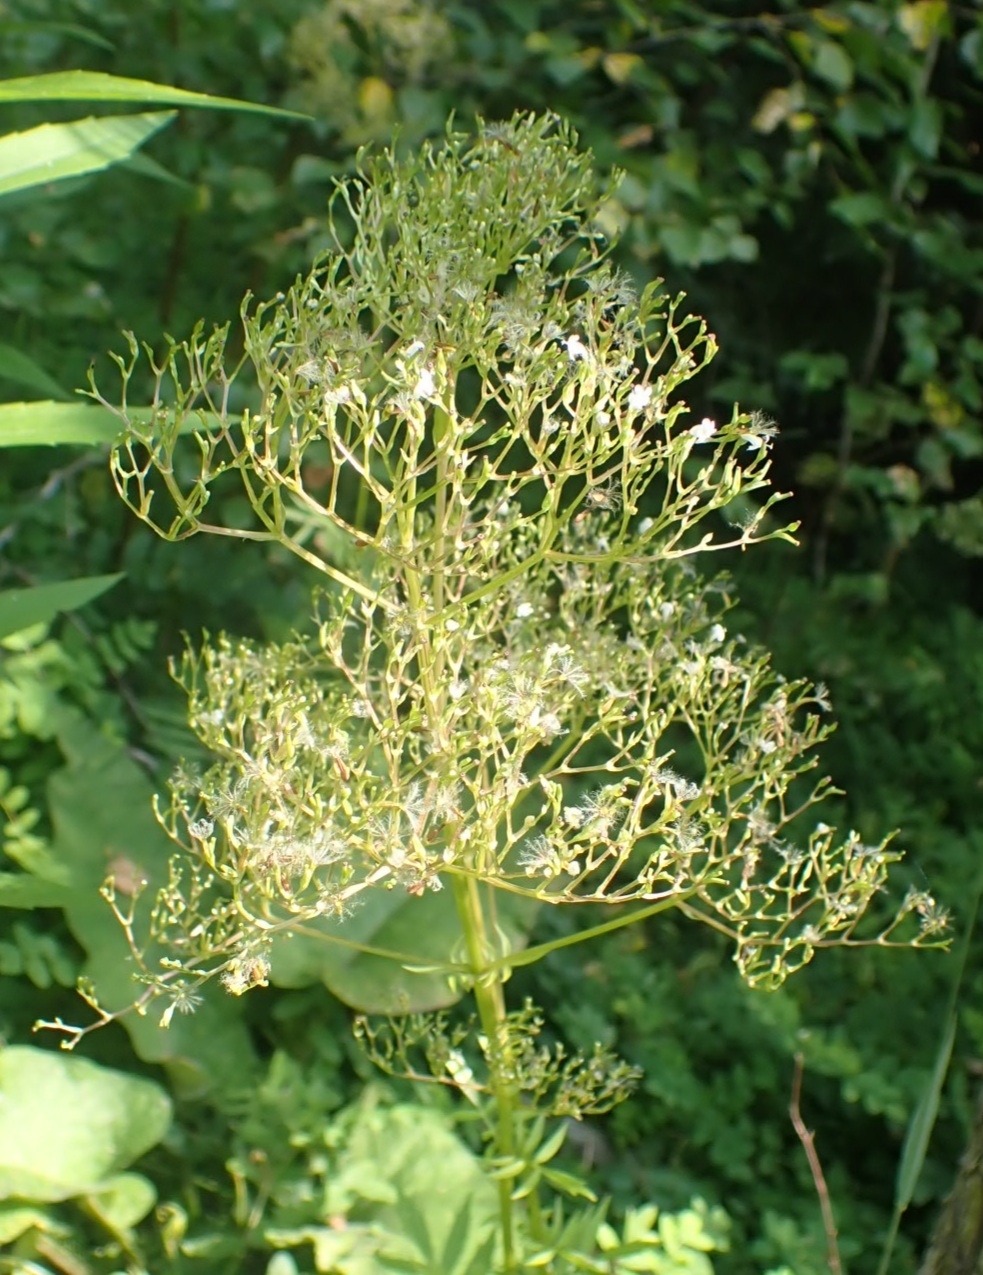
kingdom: Plantae
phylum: Tracheophyta
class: Magnoliopsida
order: Dipsacales
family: Caprifoliaceae
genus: Valeriana
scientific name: Valeriana officinalis
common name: Common valerian
